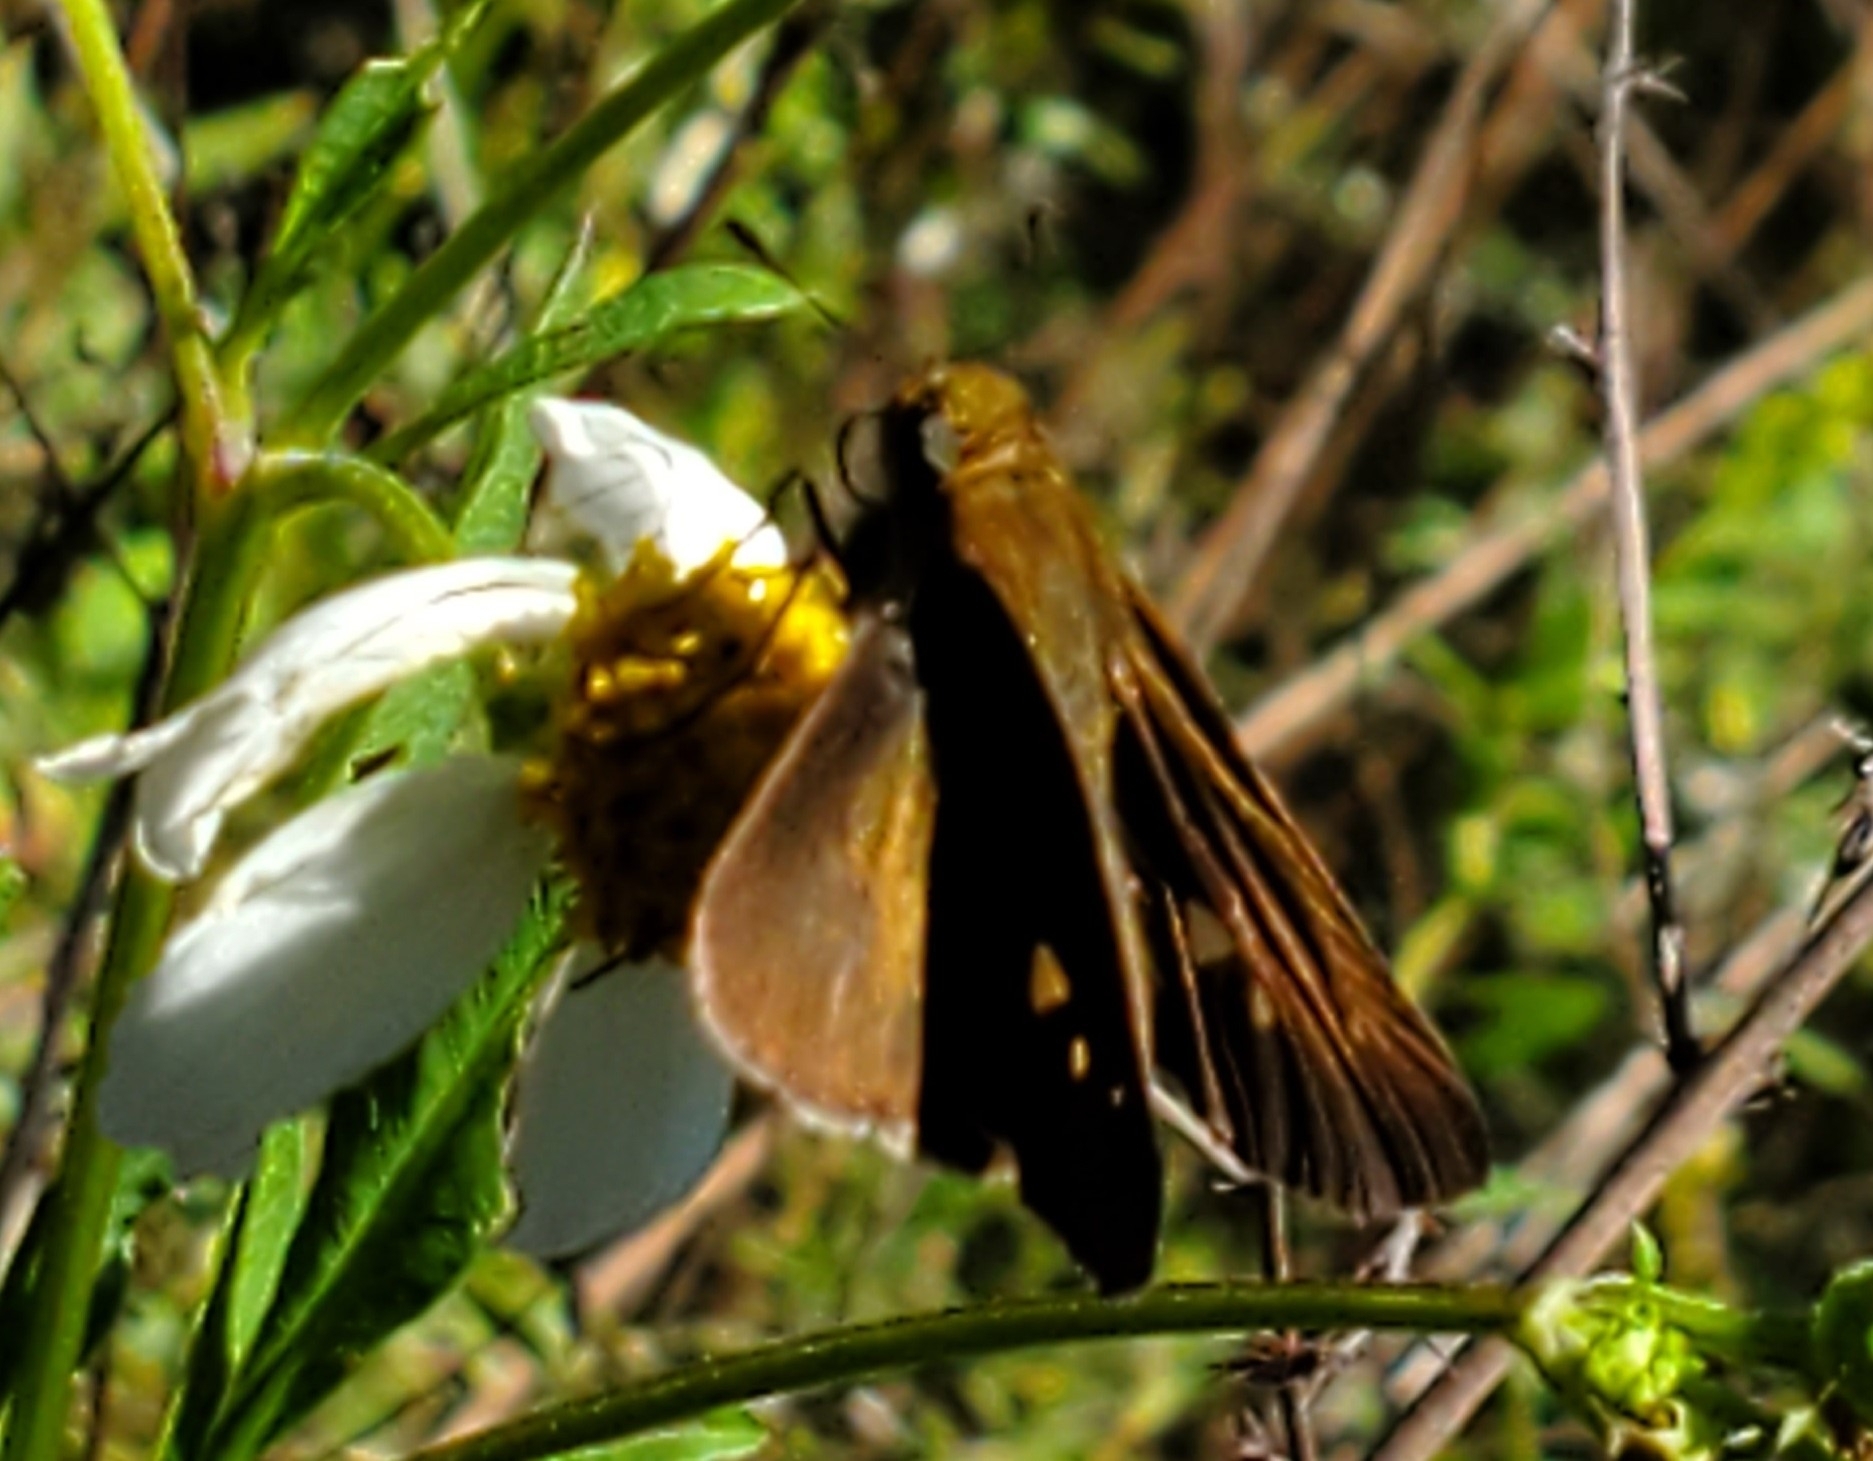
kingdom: Animalia
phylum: Arthropoda
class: Insecta
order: Lepidoptera
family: Hesperiidae
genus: Panoquina
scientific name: Panoquina ocola
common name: Ocola skipper
